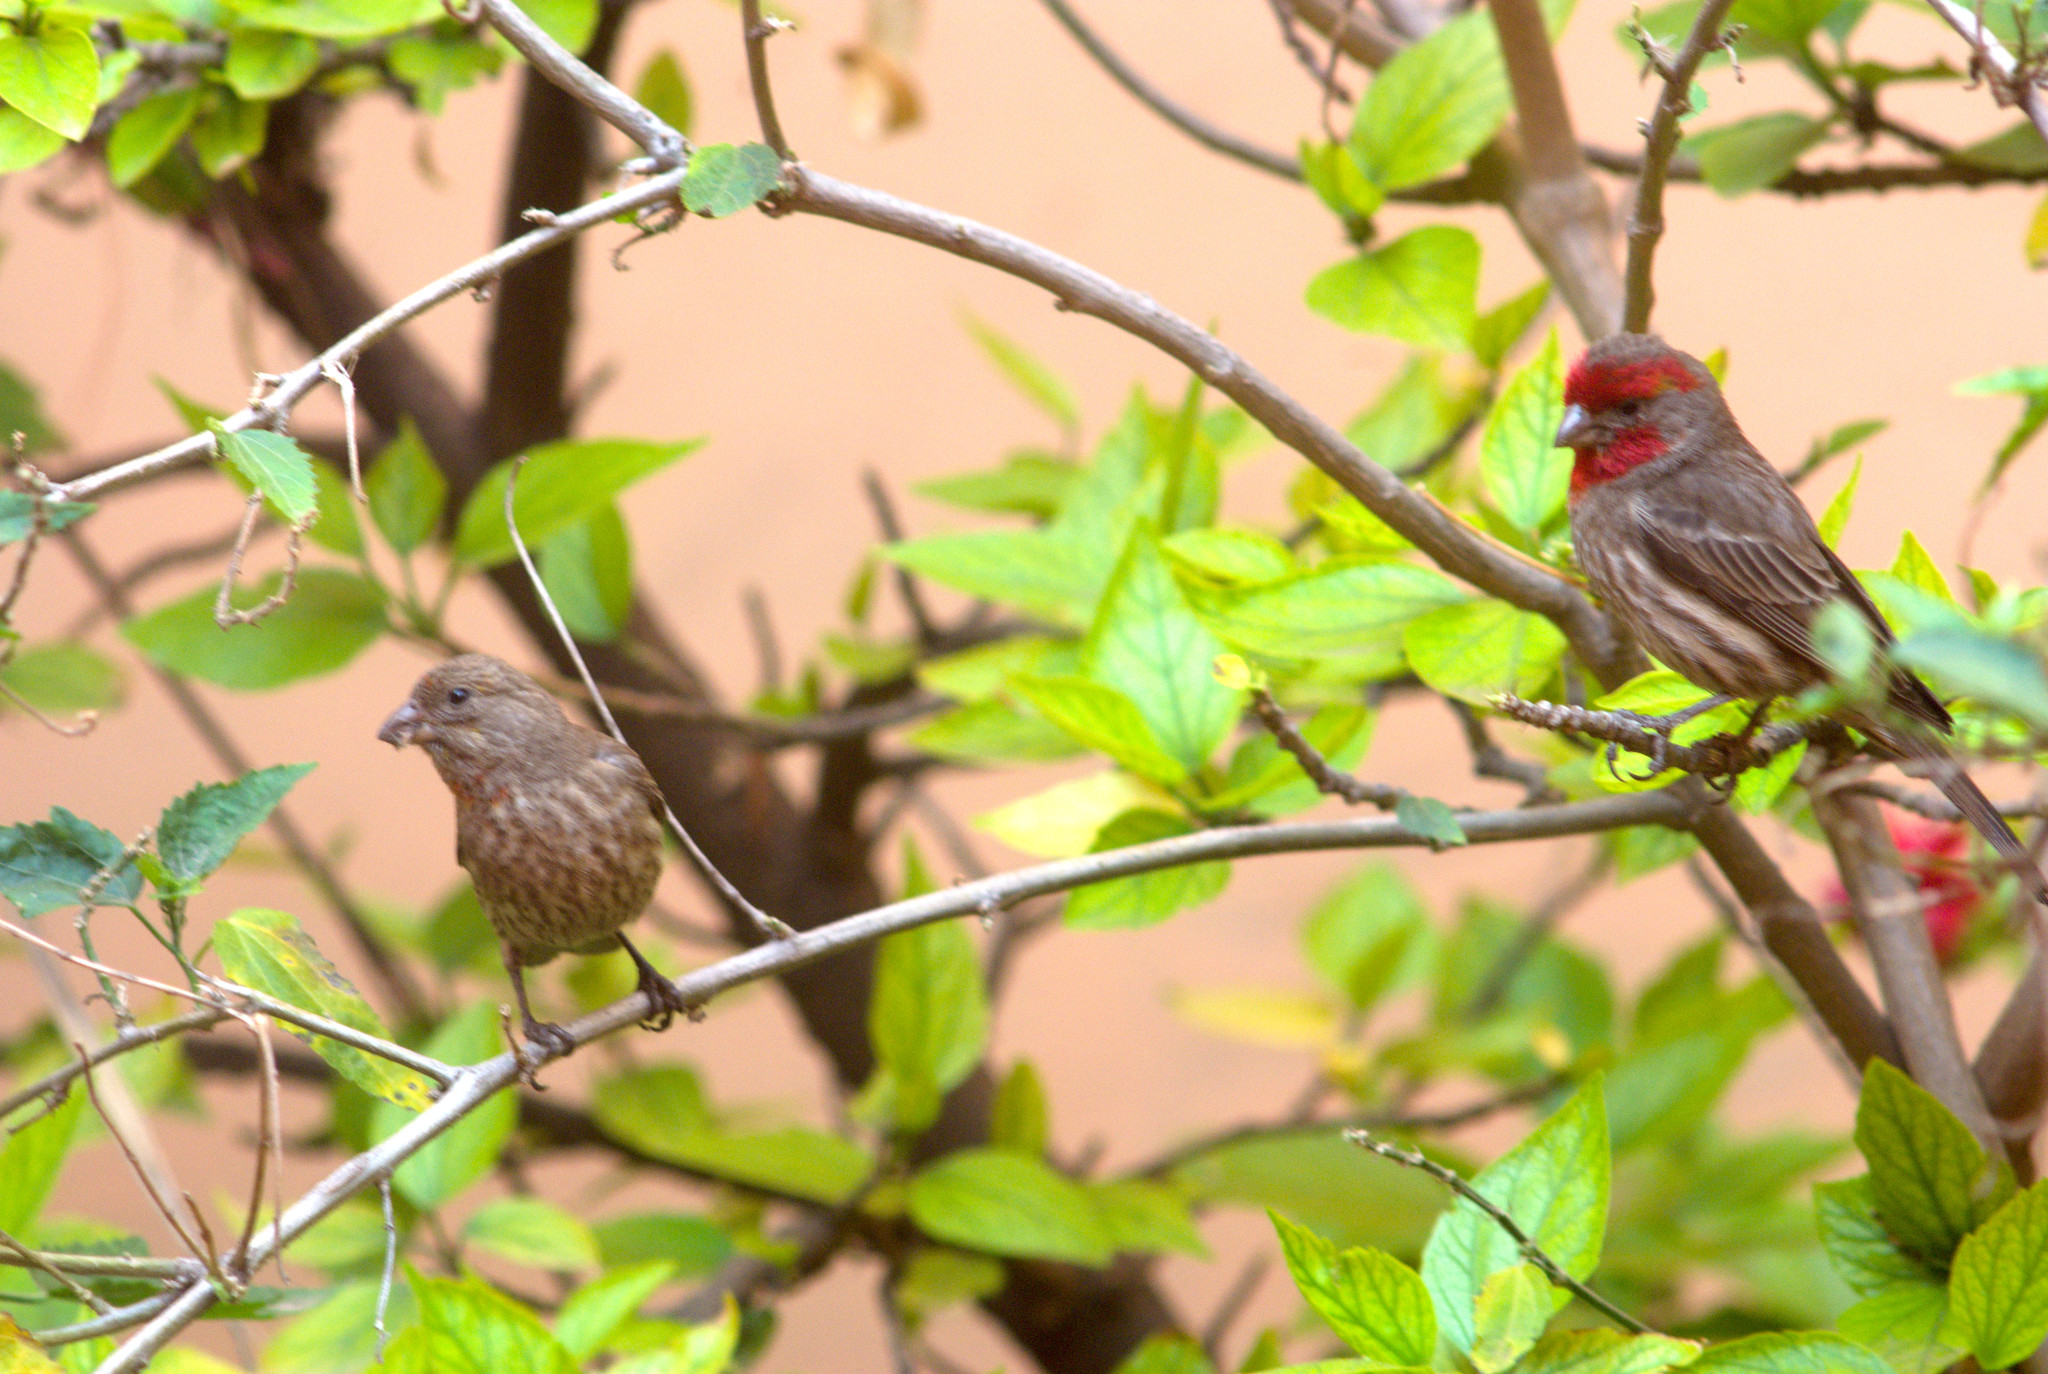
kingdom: Animalia
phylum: Chordata
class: Aves
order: Passeriformes
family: Fringillidae
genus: Haemorhous
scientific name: Haemorhous mexicanus
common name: House finch
